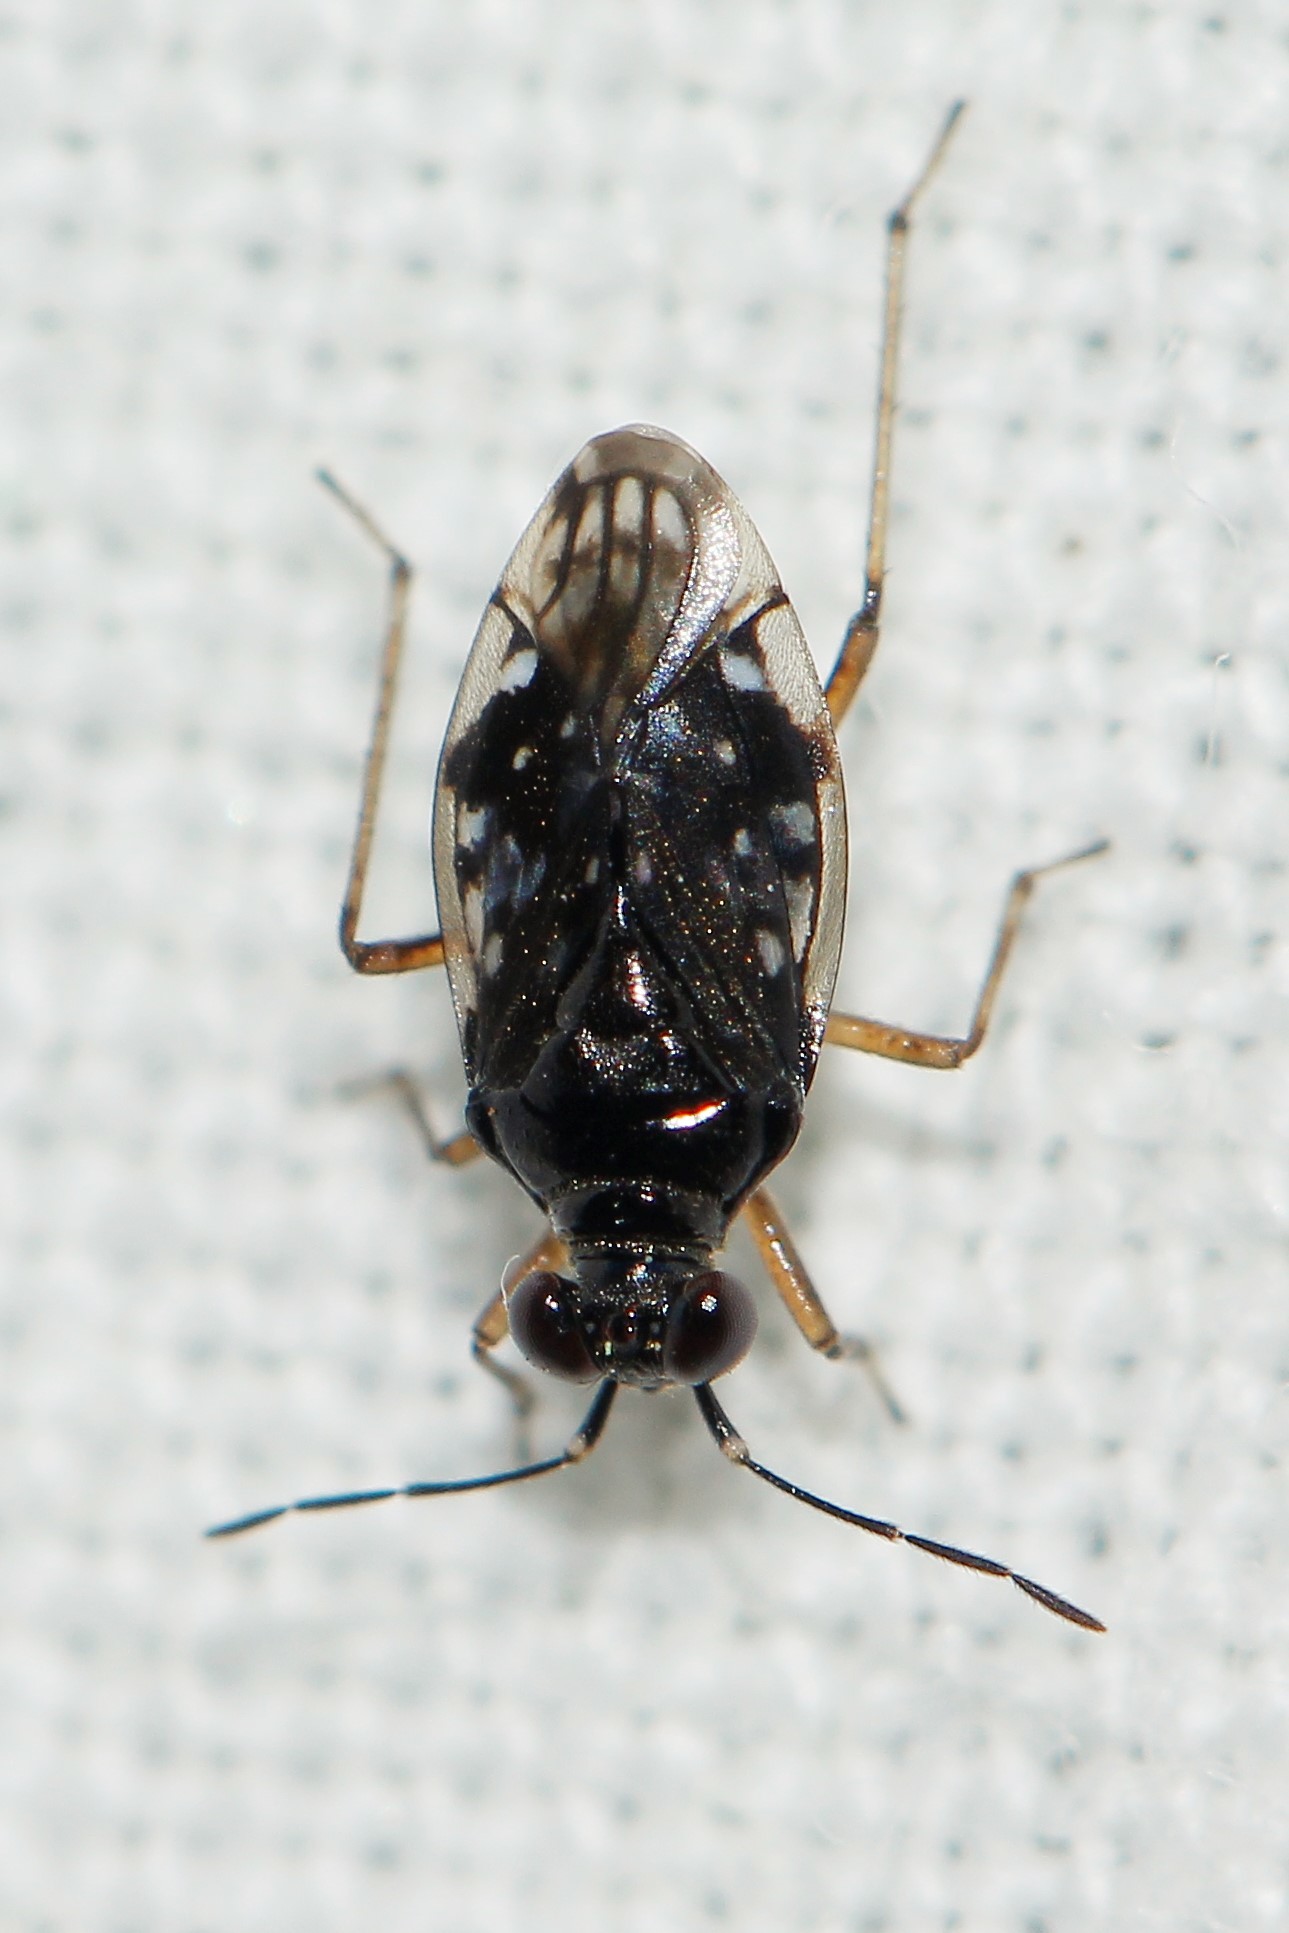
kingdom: Animalia
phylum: Arthropoda
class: Insecta
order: Hemiptera
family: Saldidae
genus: Chartoscirta
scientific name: Chartoscirta elegantula
